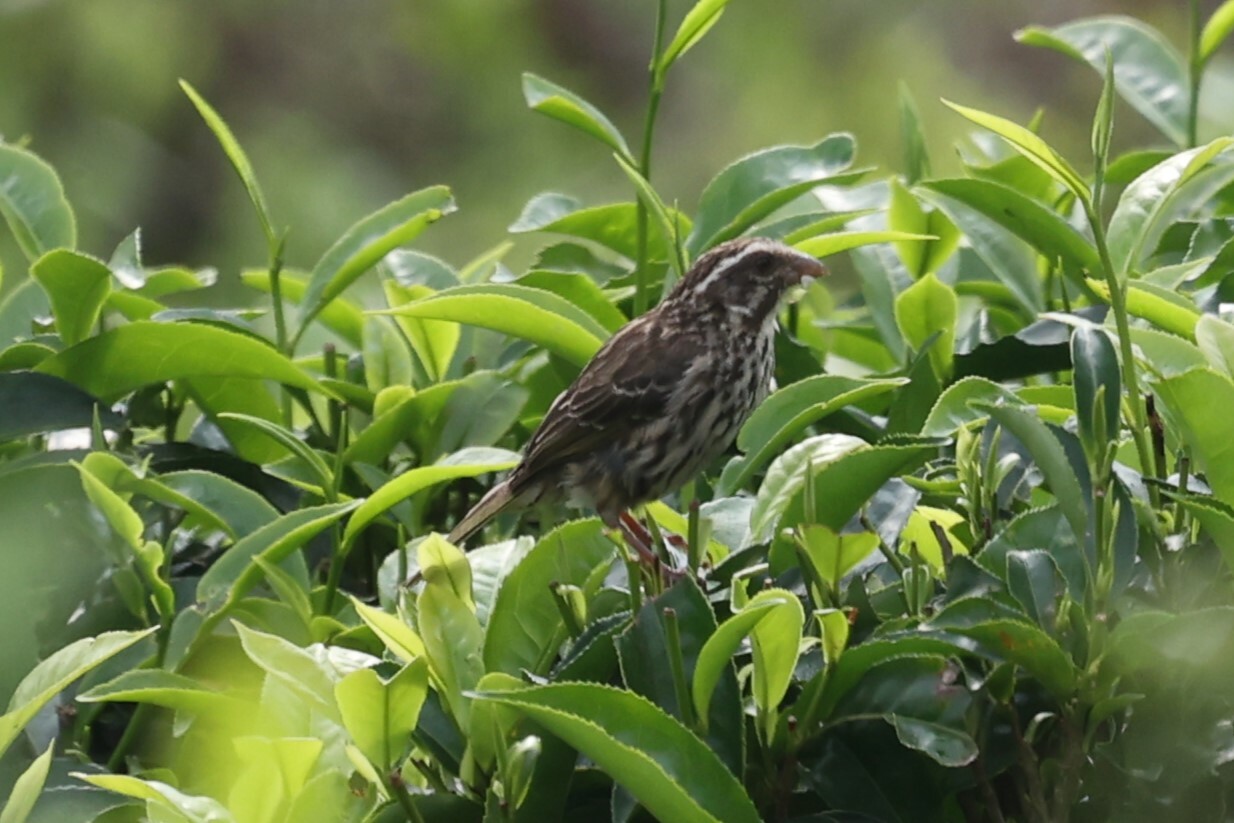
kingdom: Animalia
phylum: Chordata
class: Aves
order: Passeriformes
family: Fringillidae
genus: Crithagra
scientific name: Crithagra striolata
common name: Streaky seedeater
